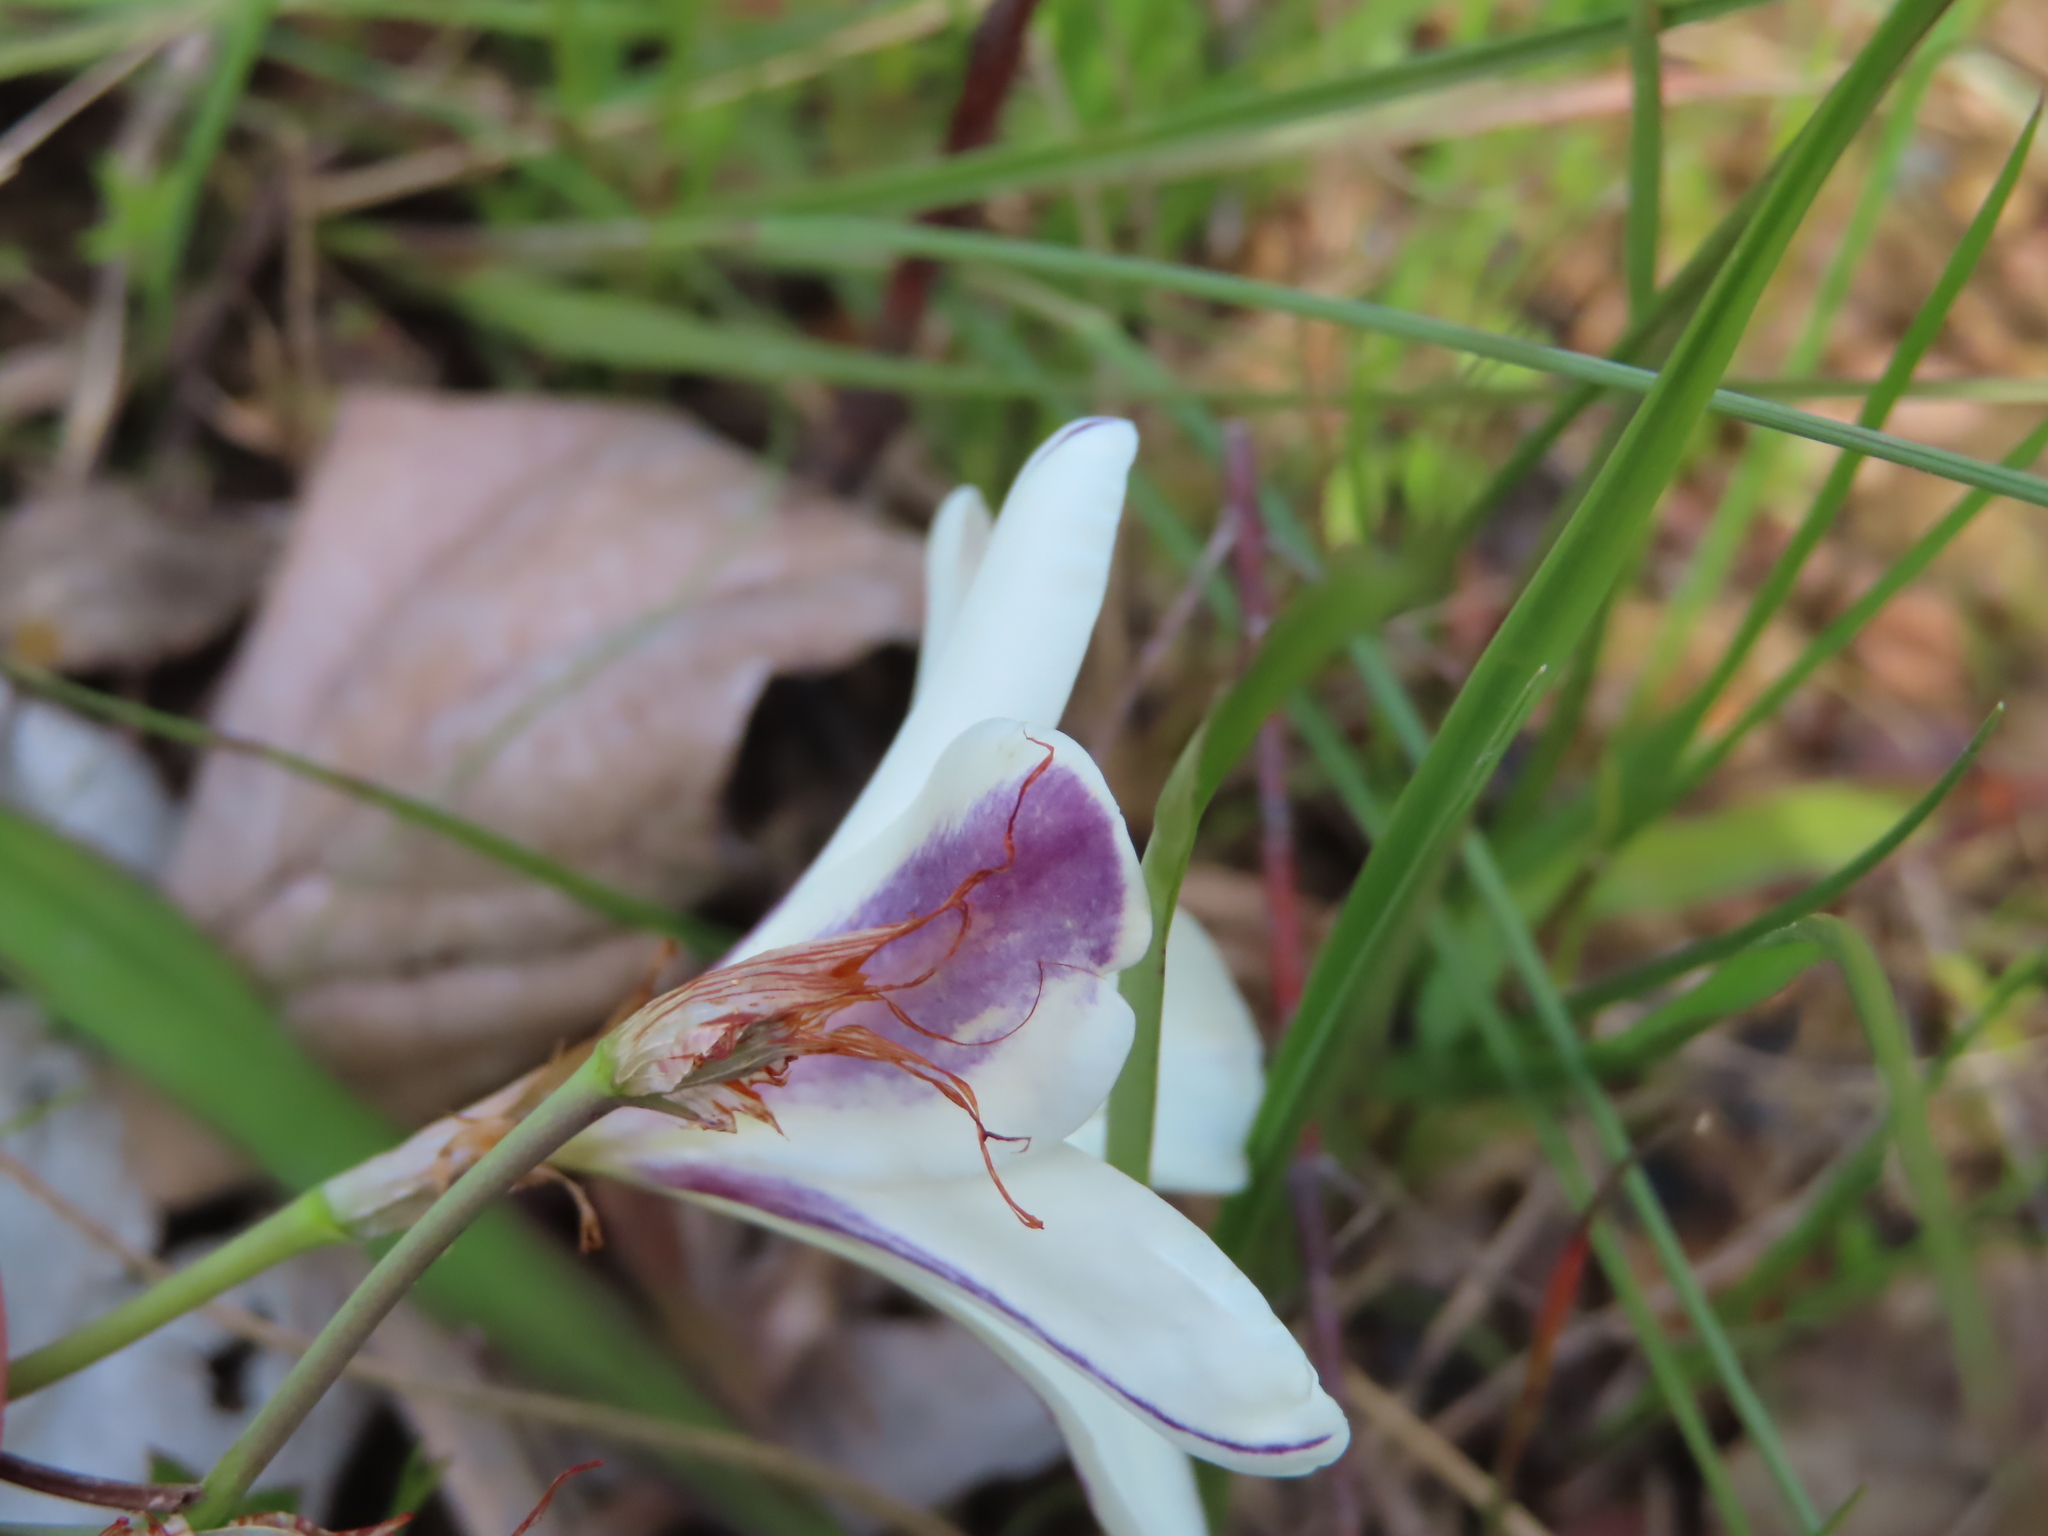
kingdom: Plantae
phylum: Tracheophyta
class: Liliopsida
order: Asparagales
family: Iridaceae
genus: Sparaxis
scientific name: Sparaxis grandiflora
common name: Plain harlequin-flower
